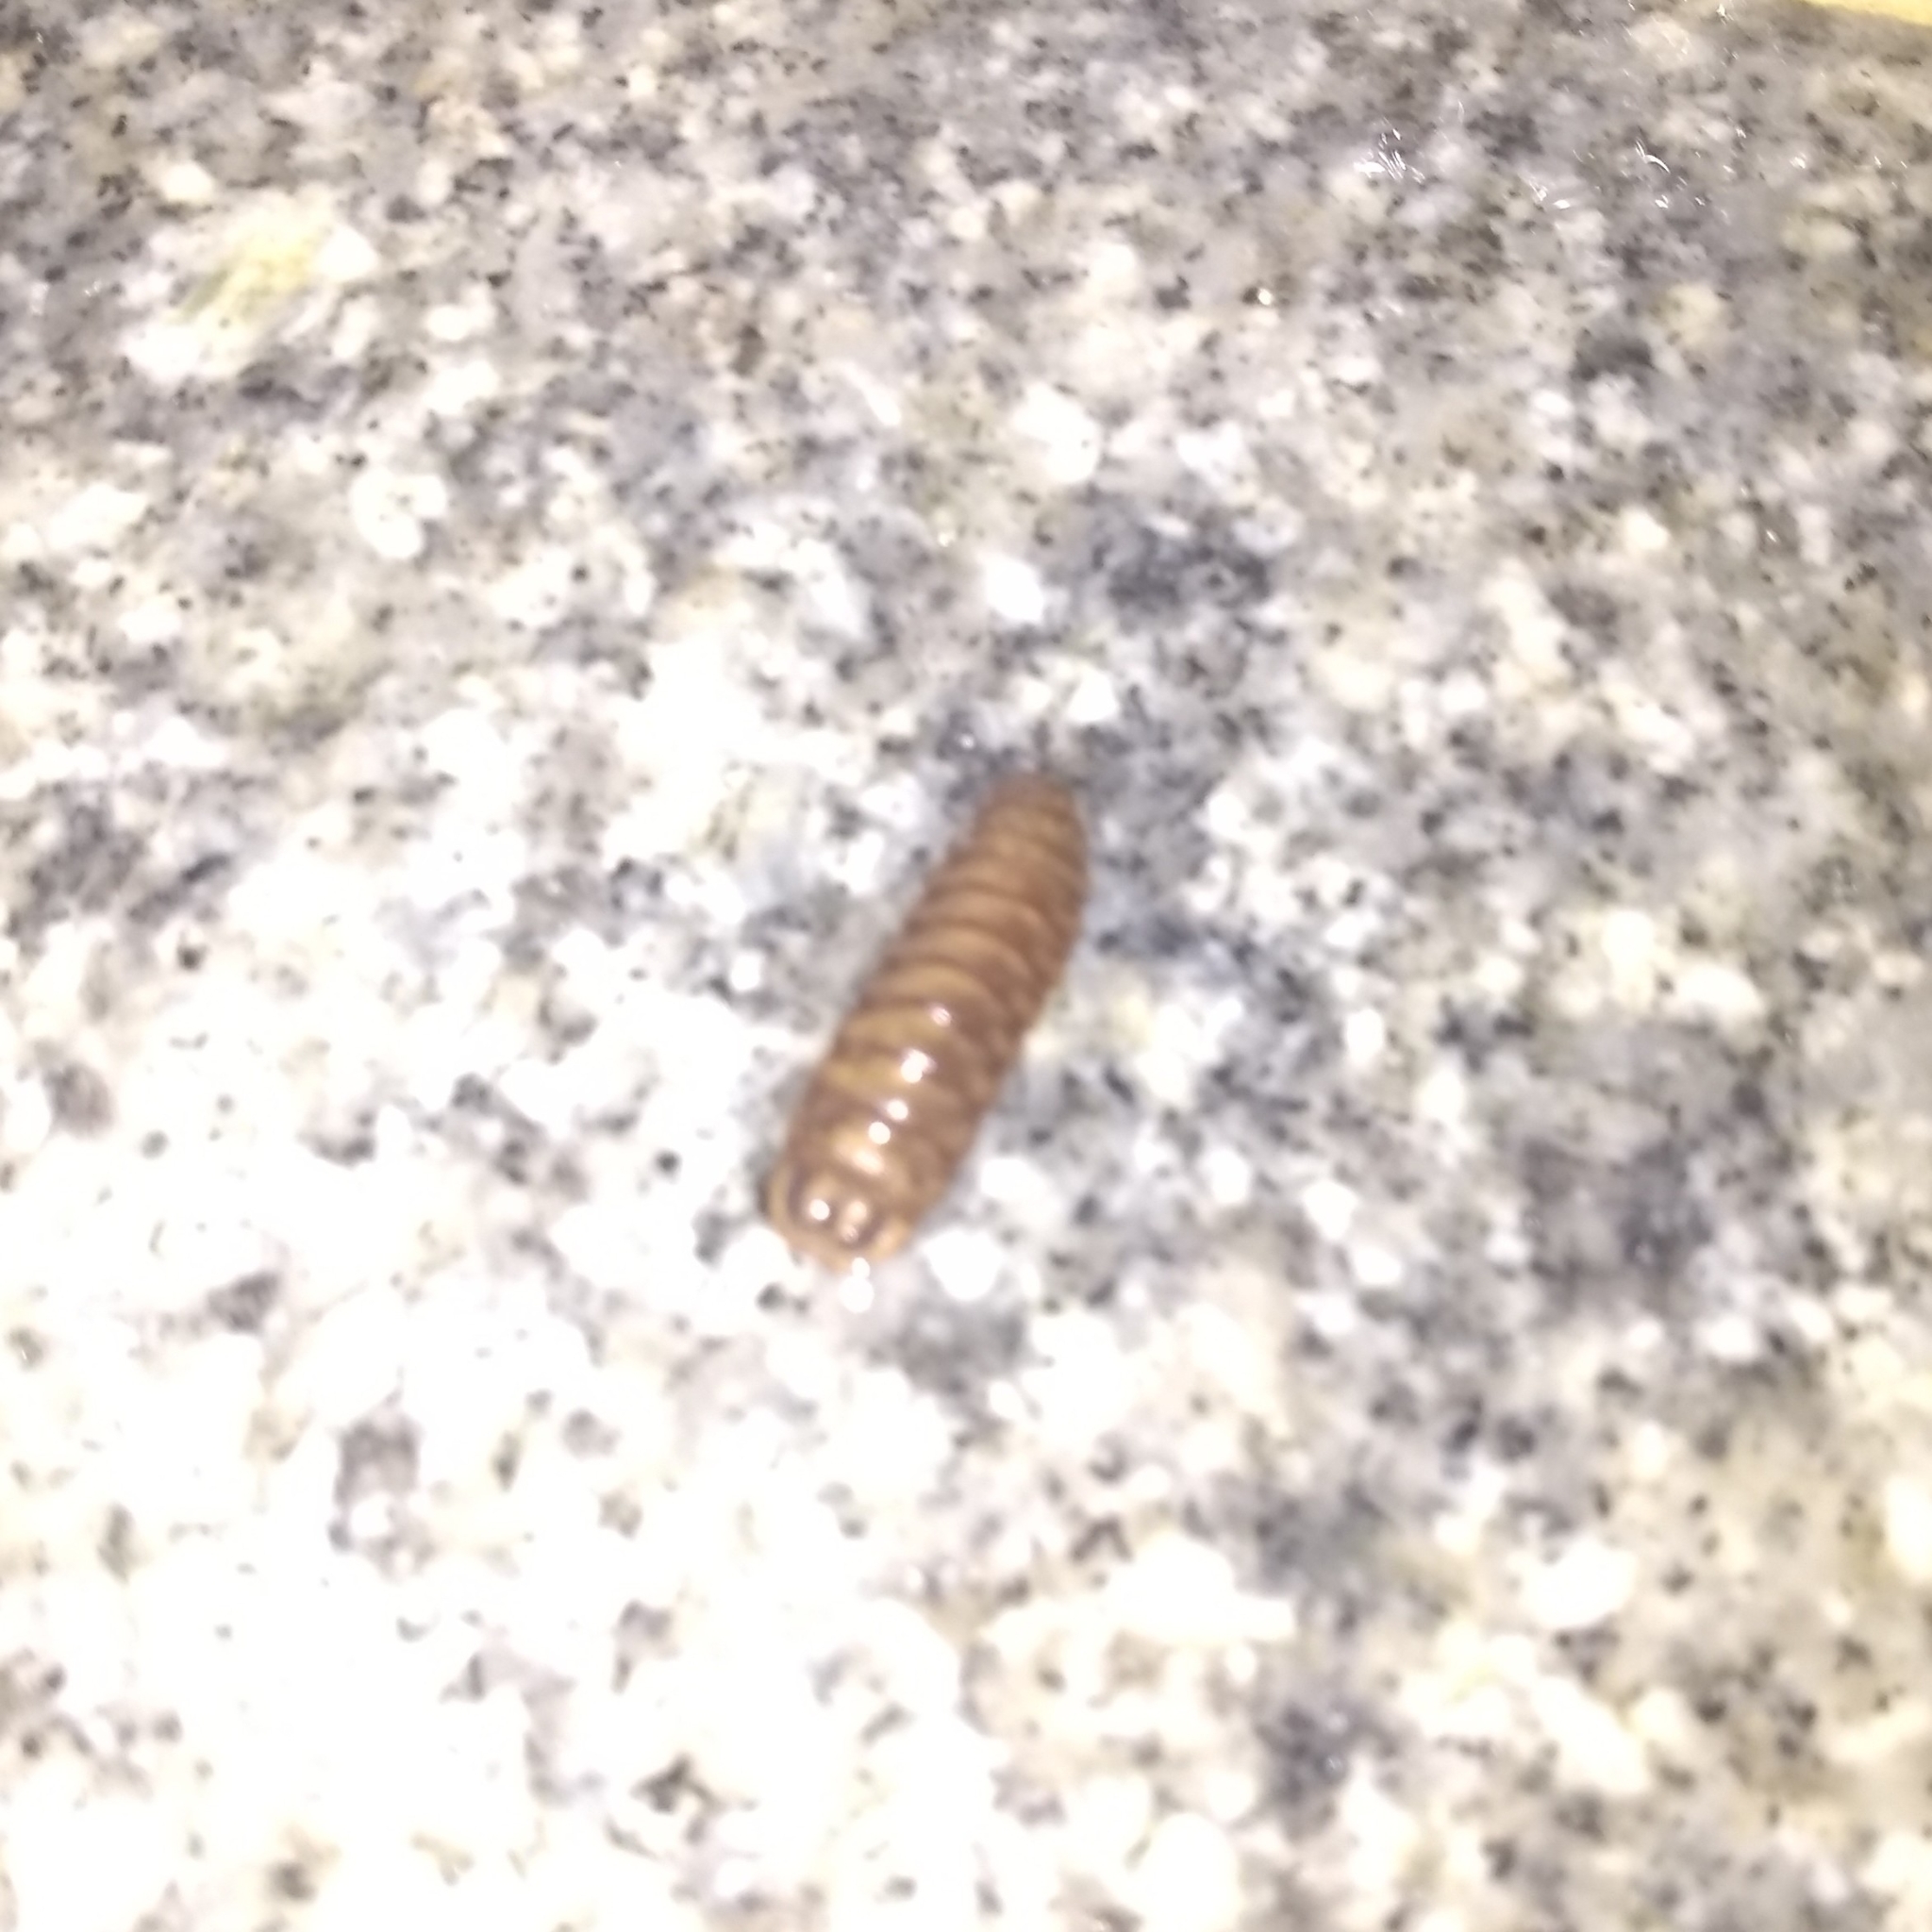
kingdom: Animalia
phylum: Arthropoda
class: Insecta
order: Diptera
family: Stratiomyidae
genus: Hermetia
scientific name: Hermetia illucens
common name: Black soldier fly
